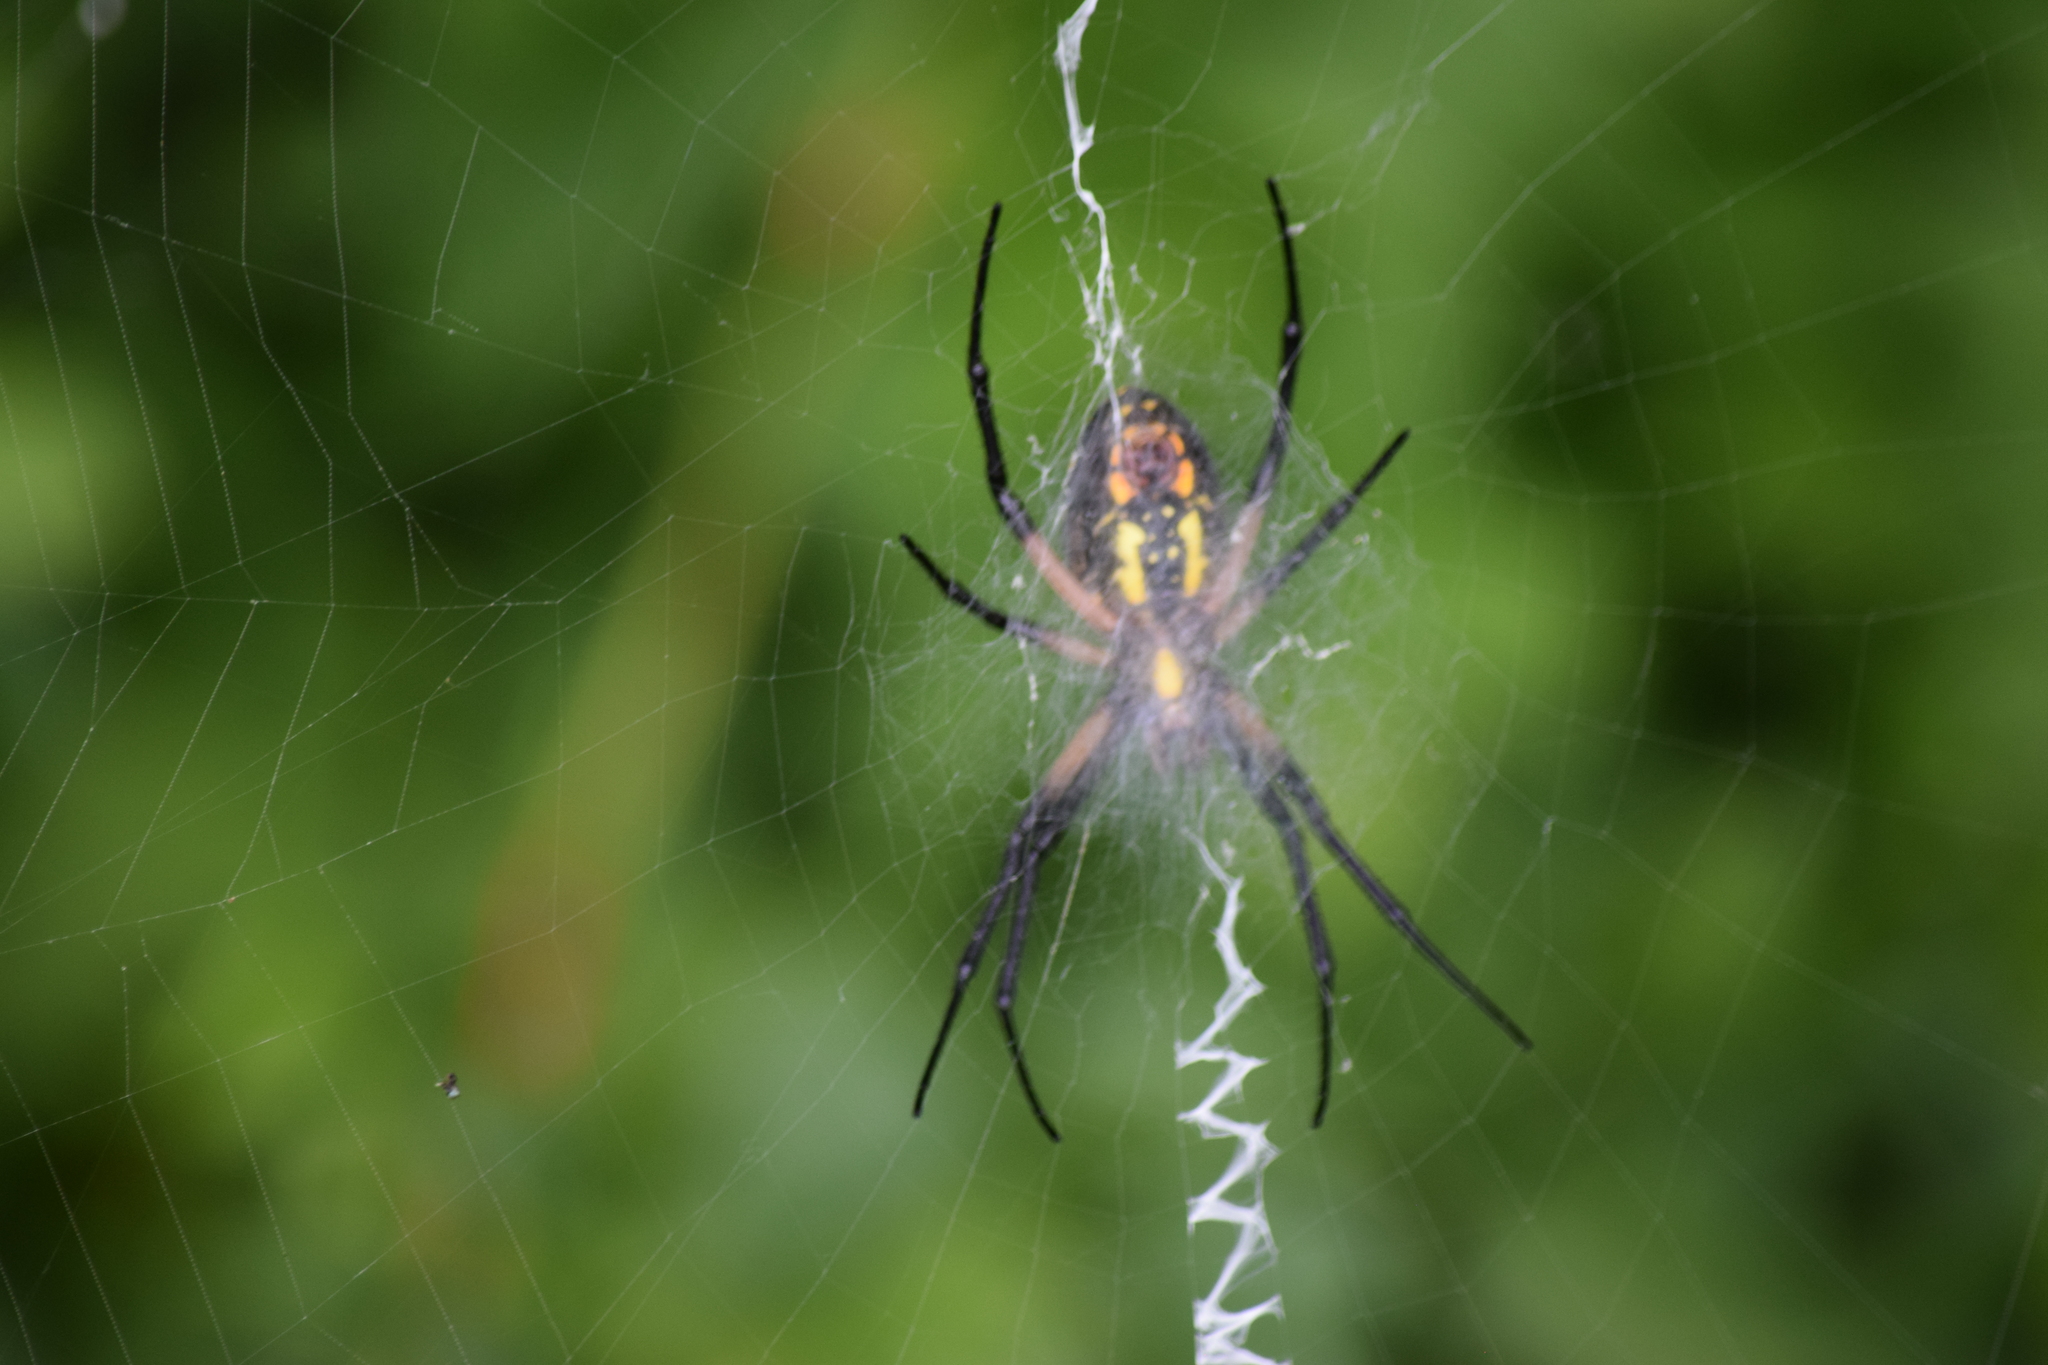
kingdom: Animalia
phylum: Arthropoda
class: Arachnida
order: Araneae
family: Araneidae
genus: Argiope
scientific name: Argiope aurantia
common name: Orb weavers
